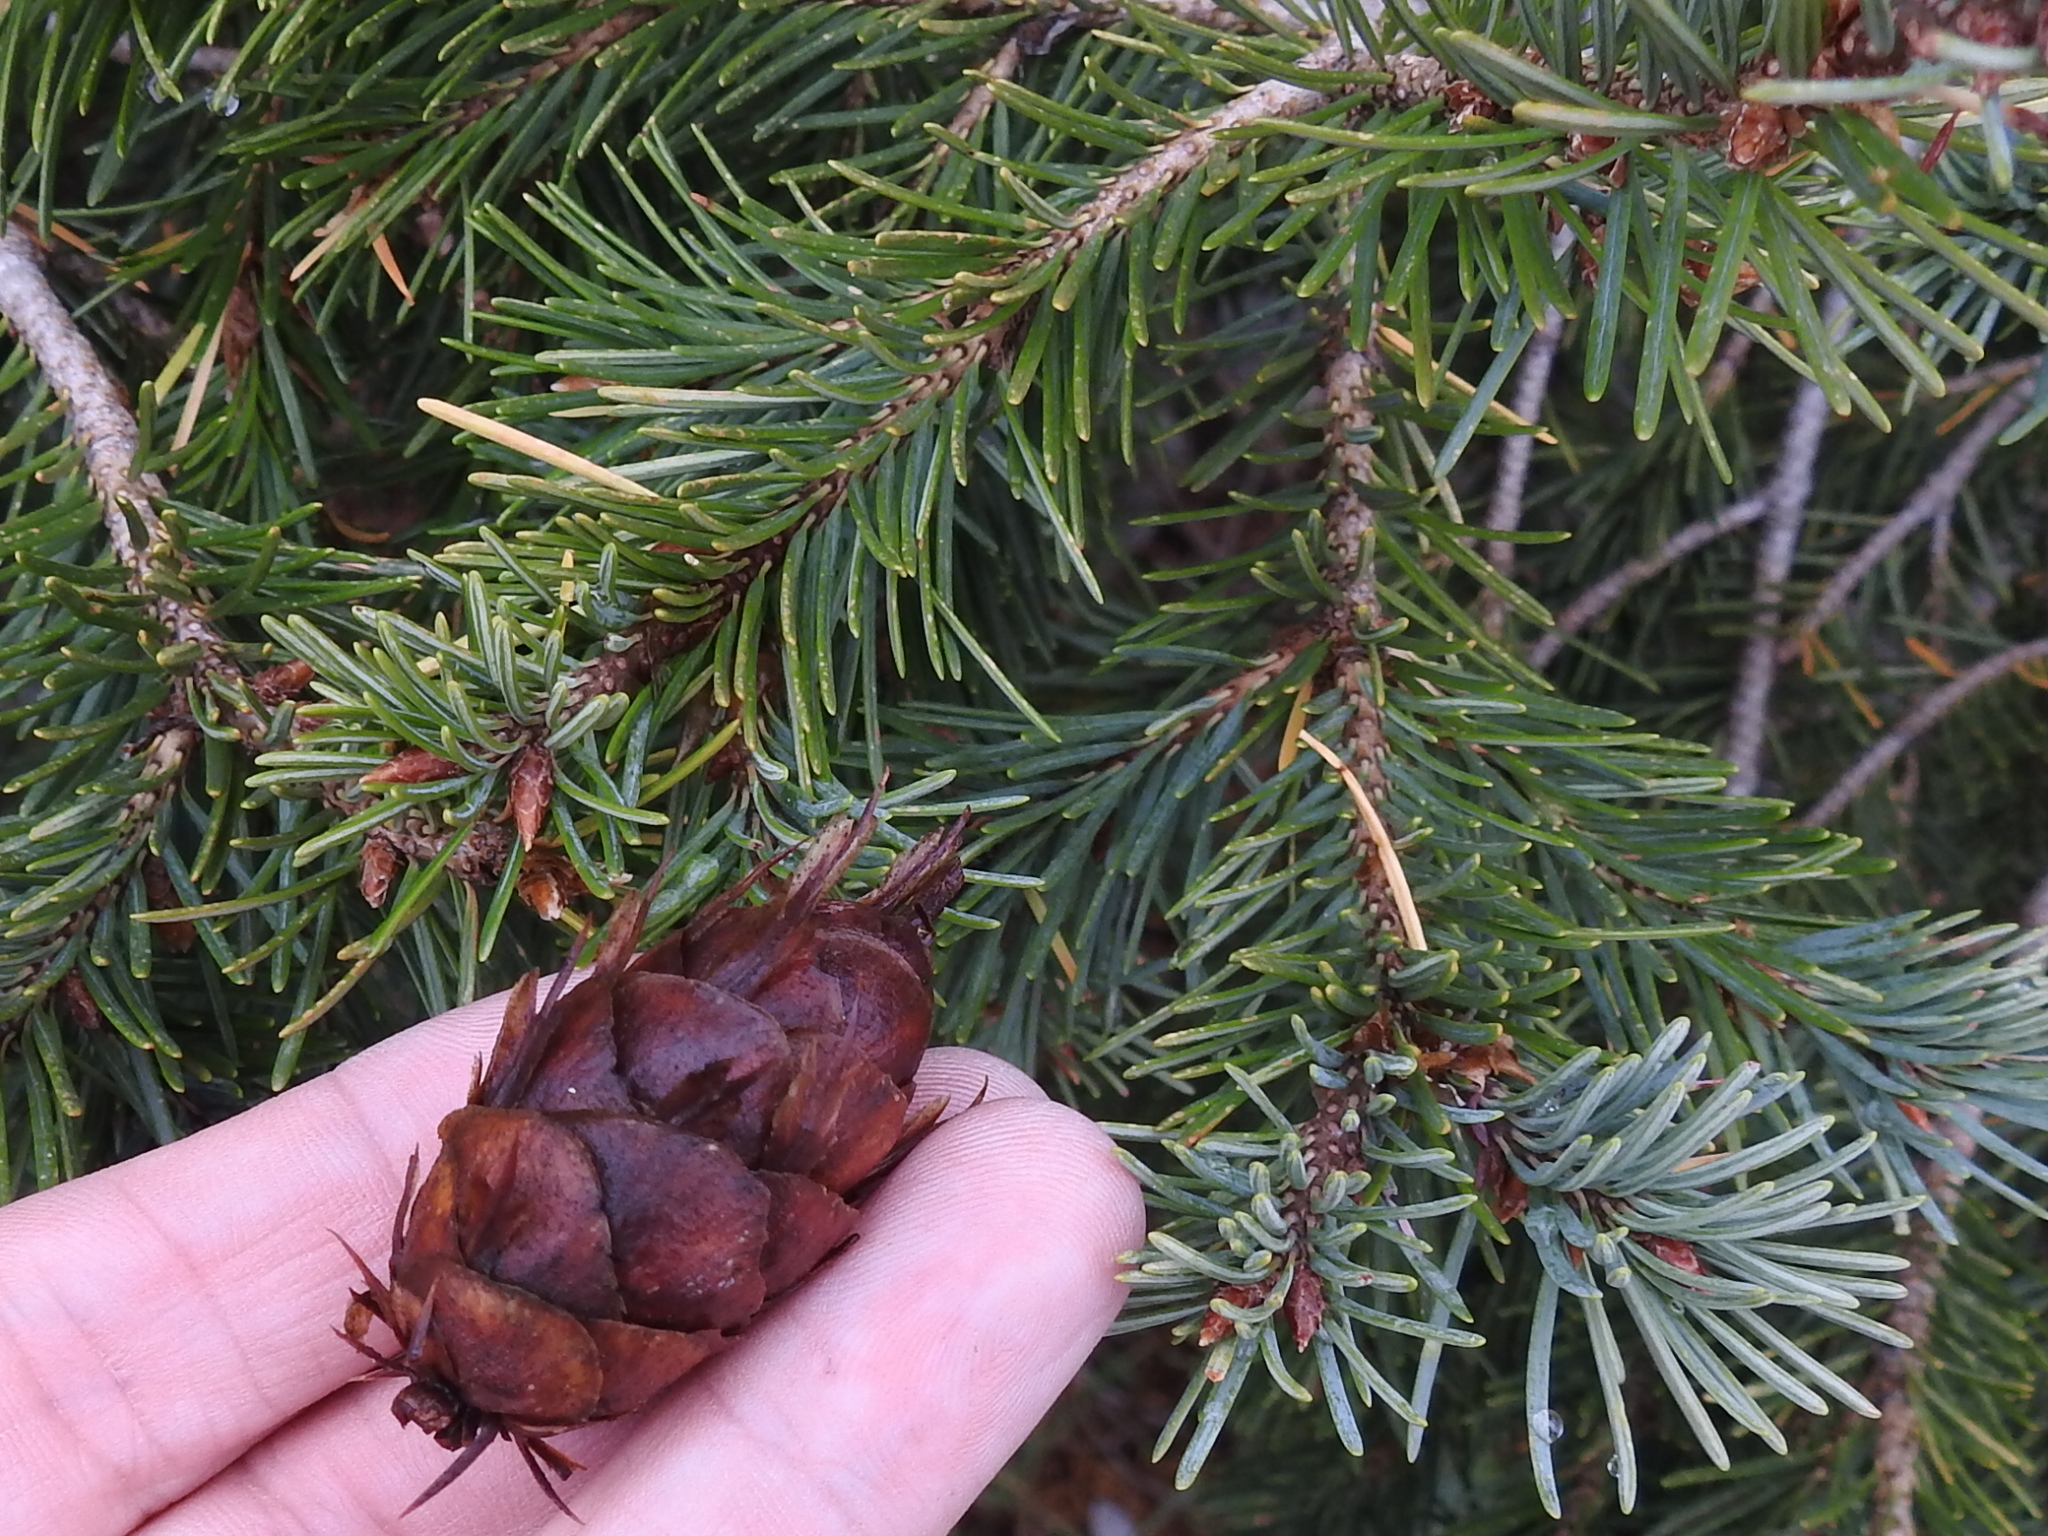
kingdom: Plantae
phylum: Tracheophyta
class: Pinopsida
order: Pinales
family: Pinaceae
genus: Pseudotsuga
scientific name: Pseudotsuga menziesii
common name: Douglas fir
